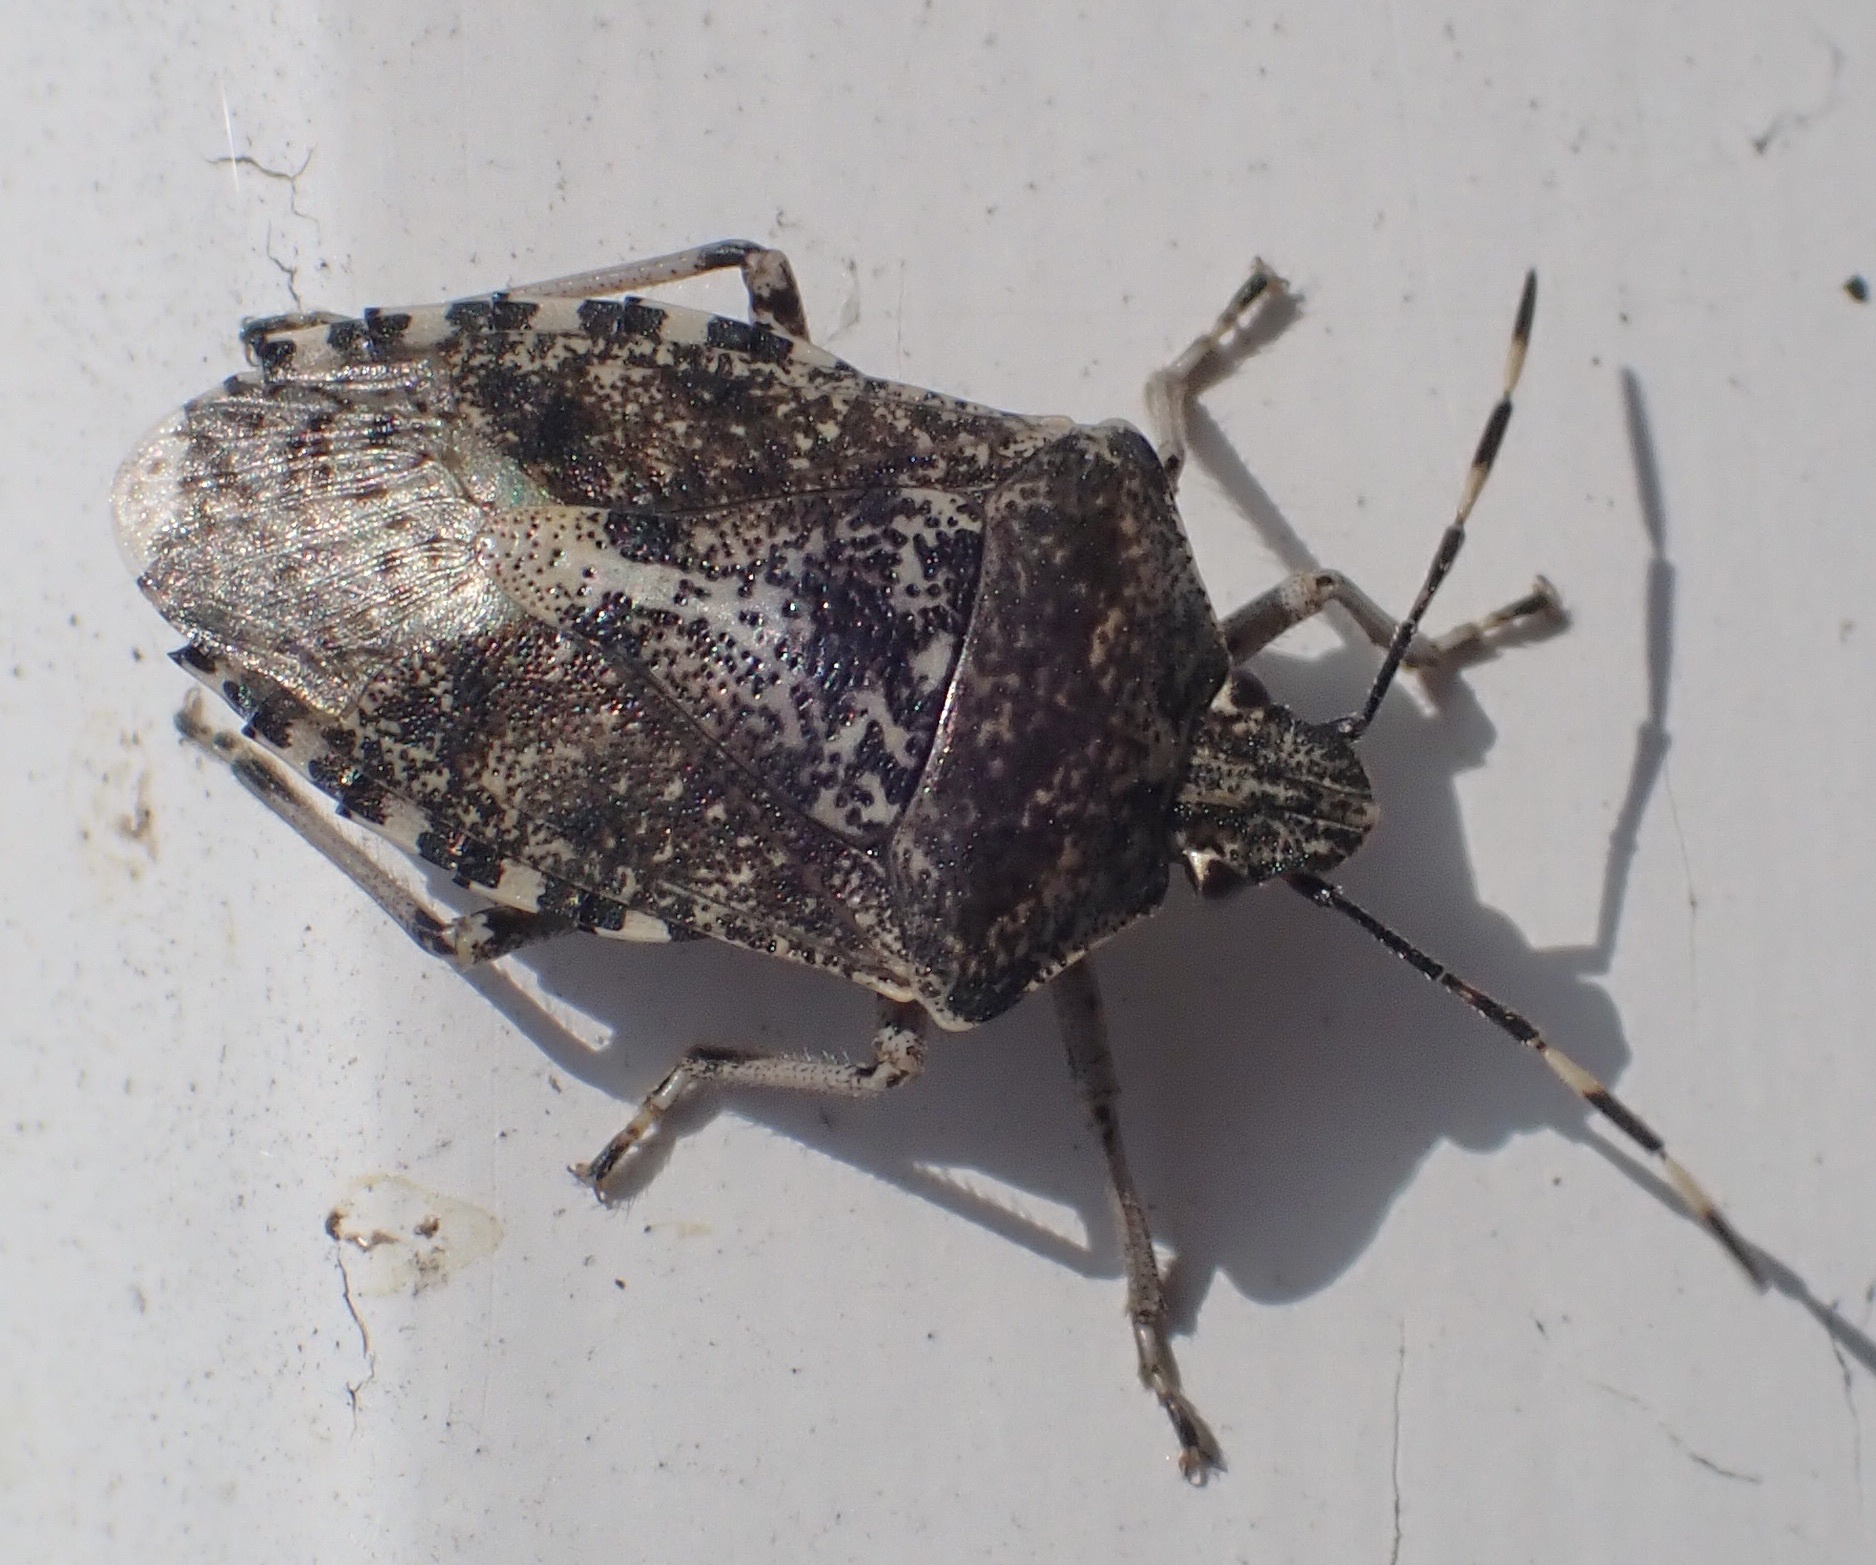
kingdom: Animalia
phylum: Arthropoda
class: Insecta
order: Hemiptera
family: Pentatomidae
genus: Rhaphigaster
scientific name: Rhaphigaster nebulosa
